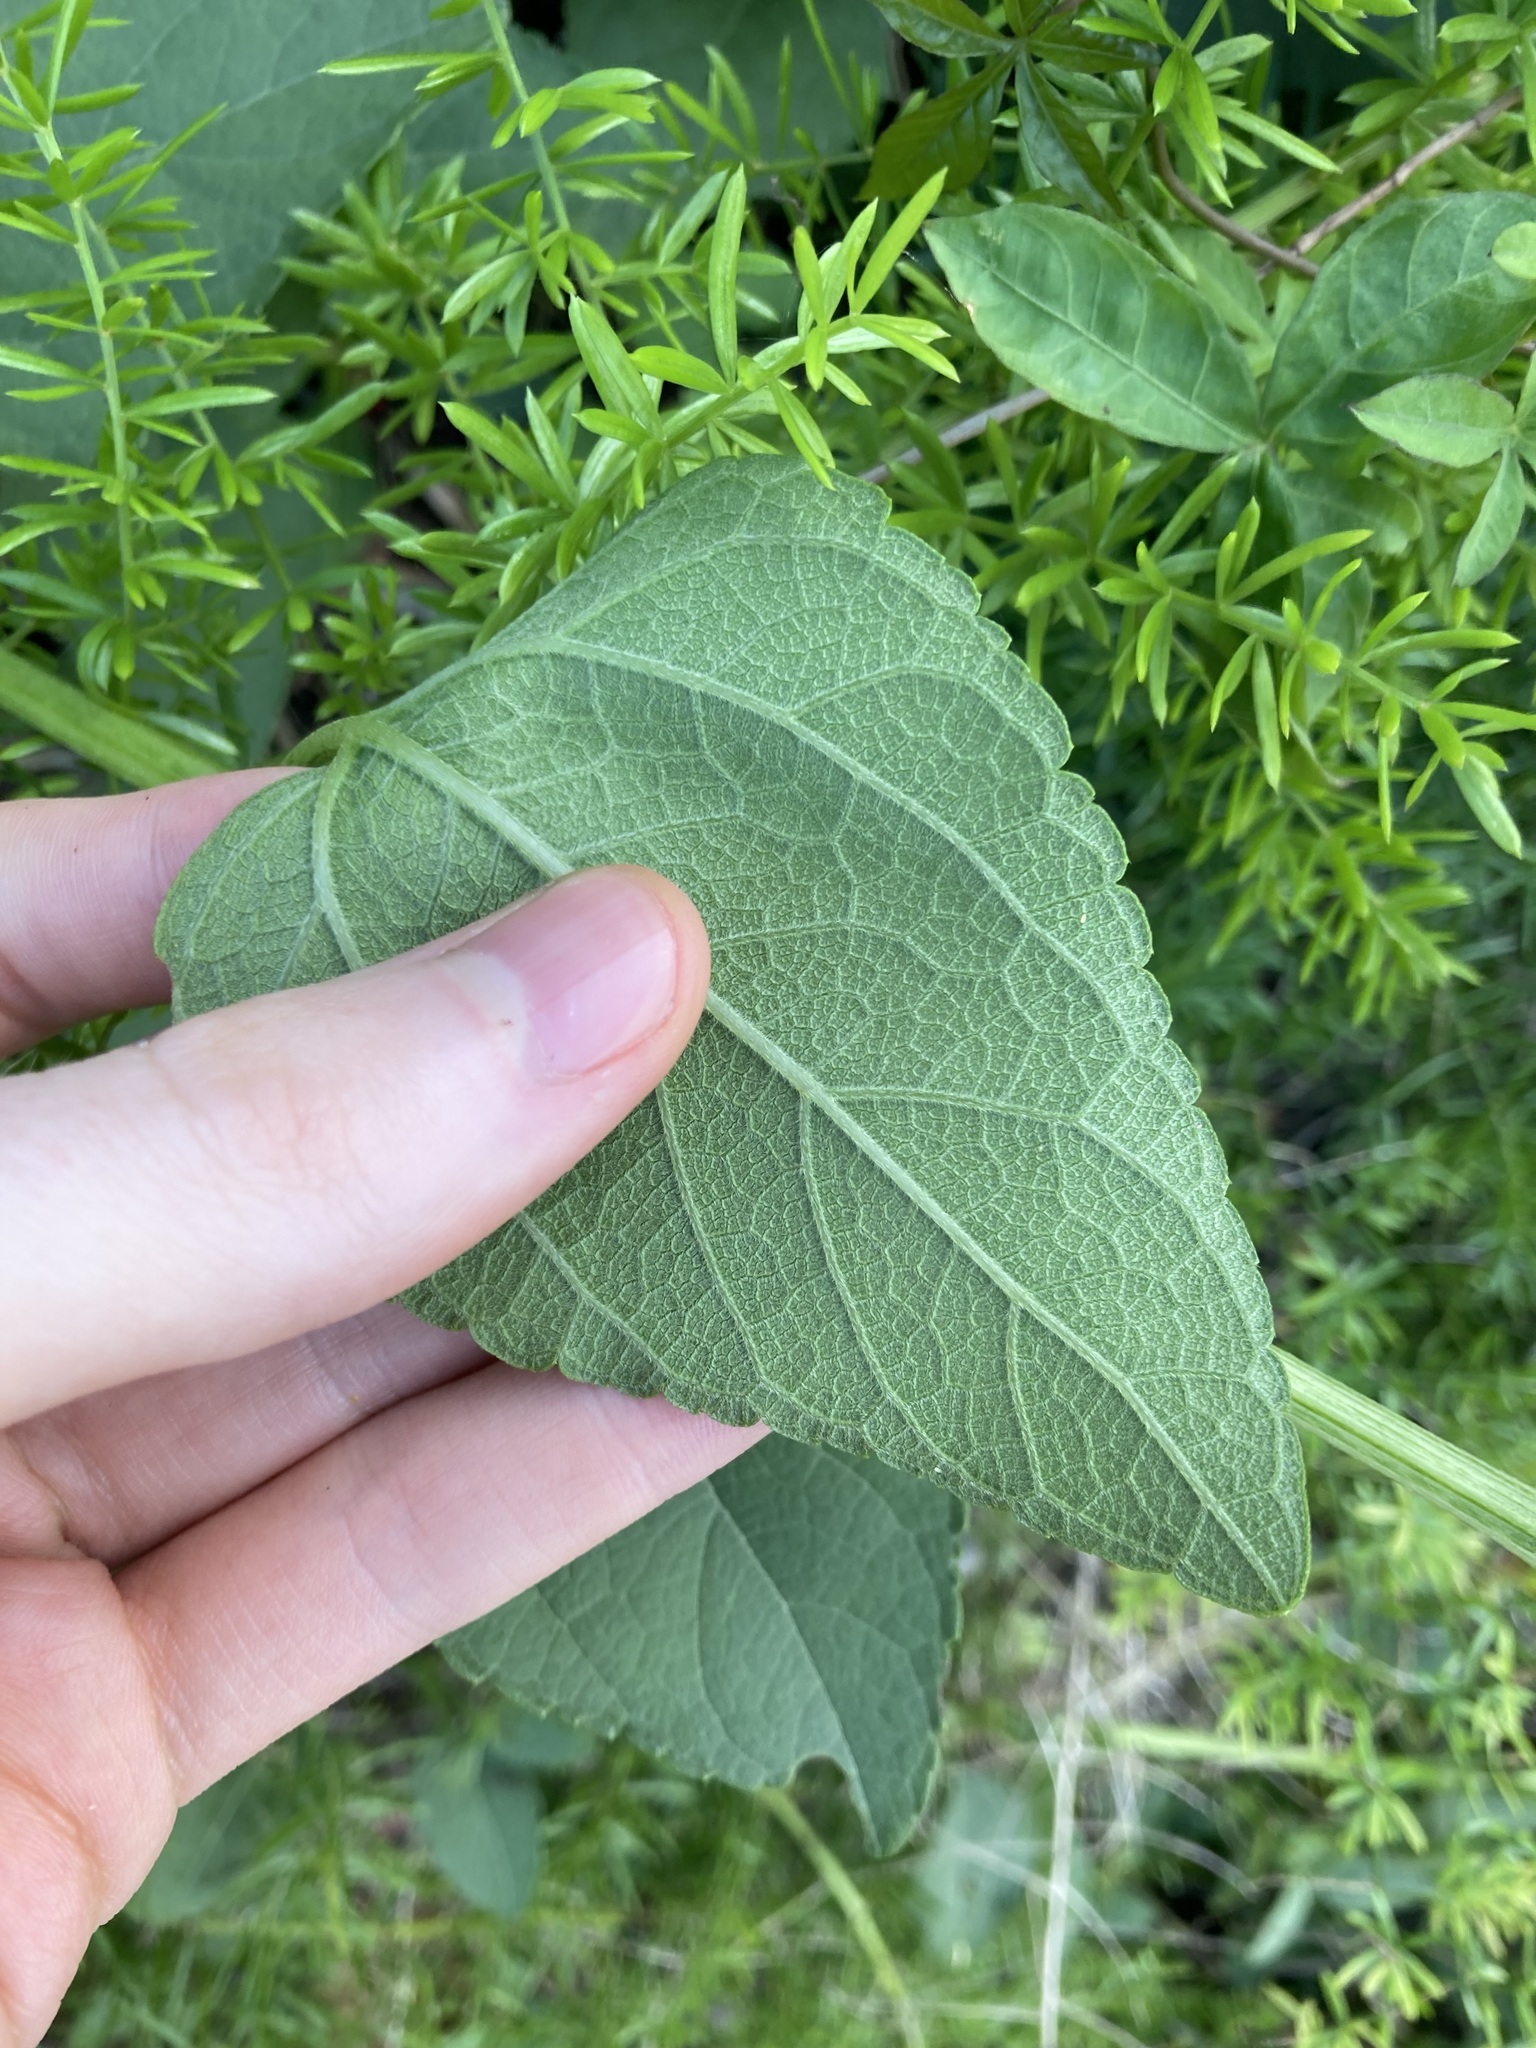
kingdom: Plantae
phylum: Tracheophyta
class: Magnoliopsida
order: Asterales
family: Asteraceae
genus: Wollastonia
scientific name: Wollastonia uniflora
